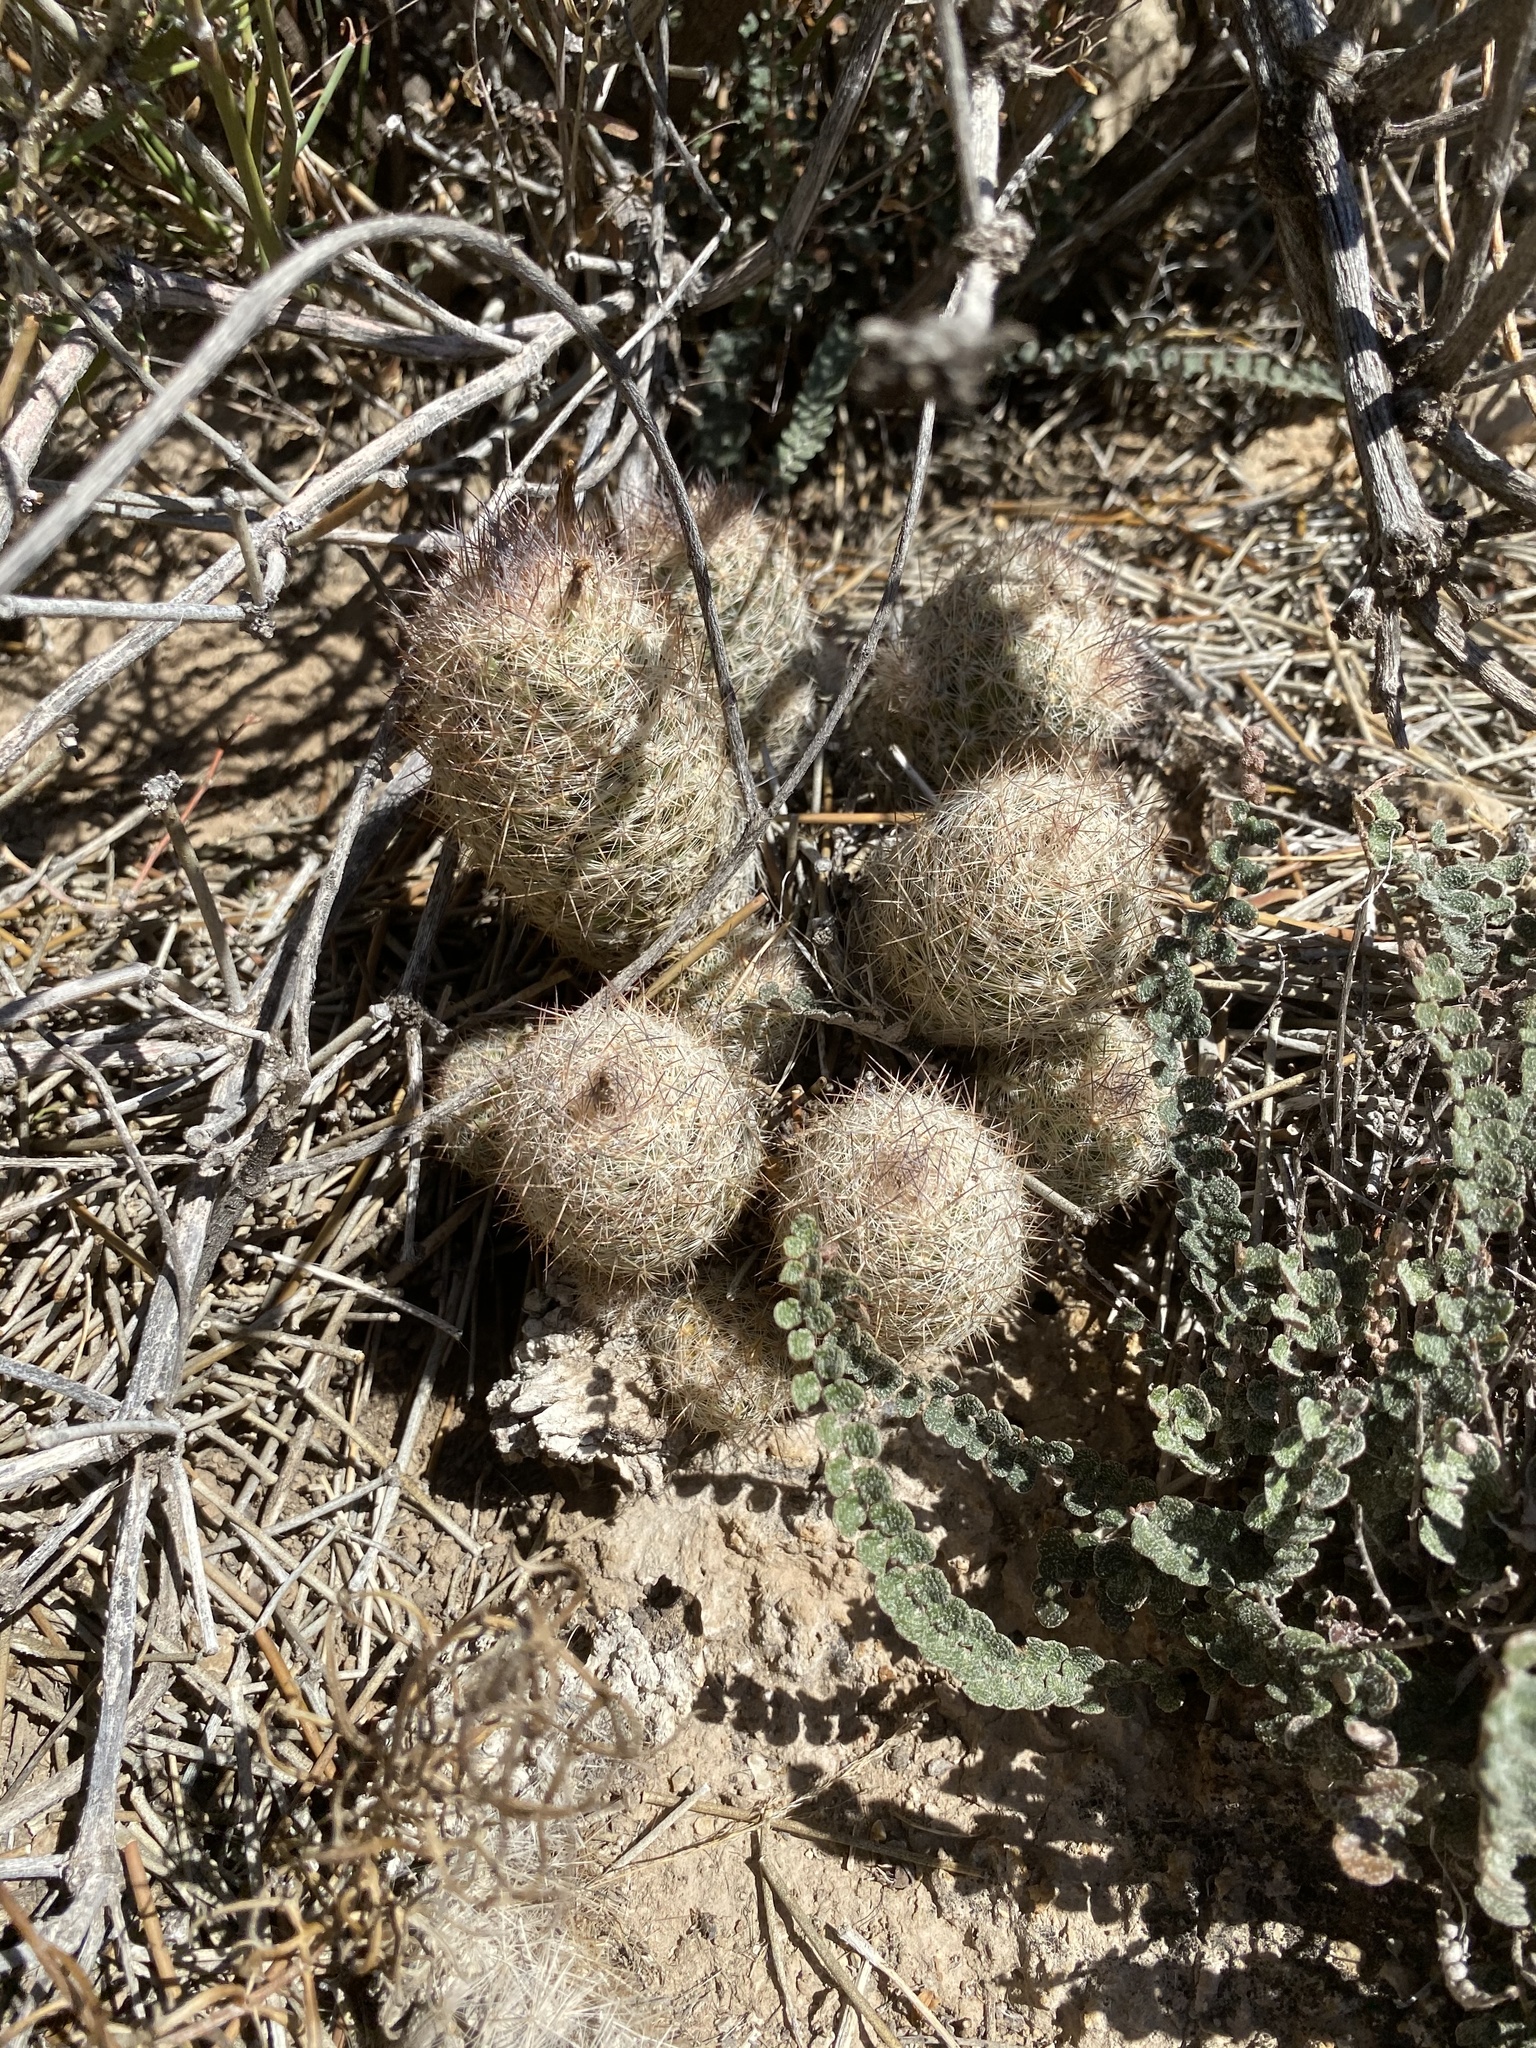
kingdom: Plantae
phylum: Tracheophyta
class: Magnoliopsida
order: Caryophyllales
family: Cactaceae
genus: Pelecyphora
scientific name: Pelecyphora tuberculosa
